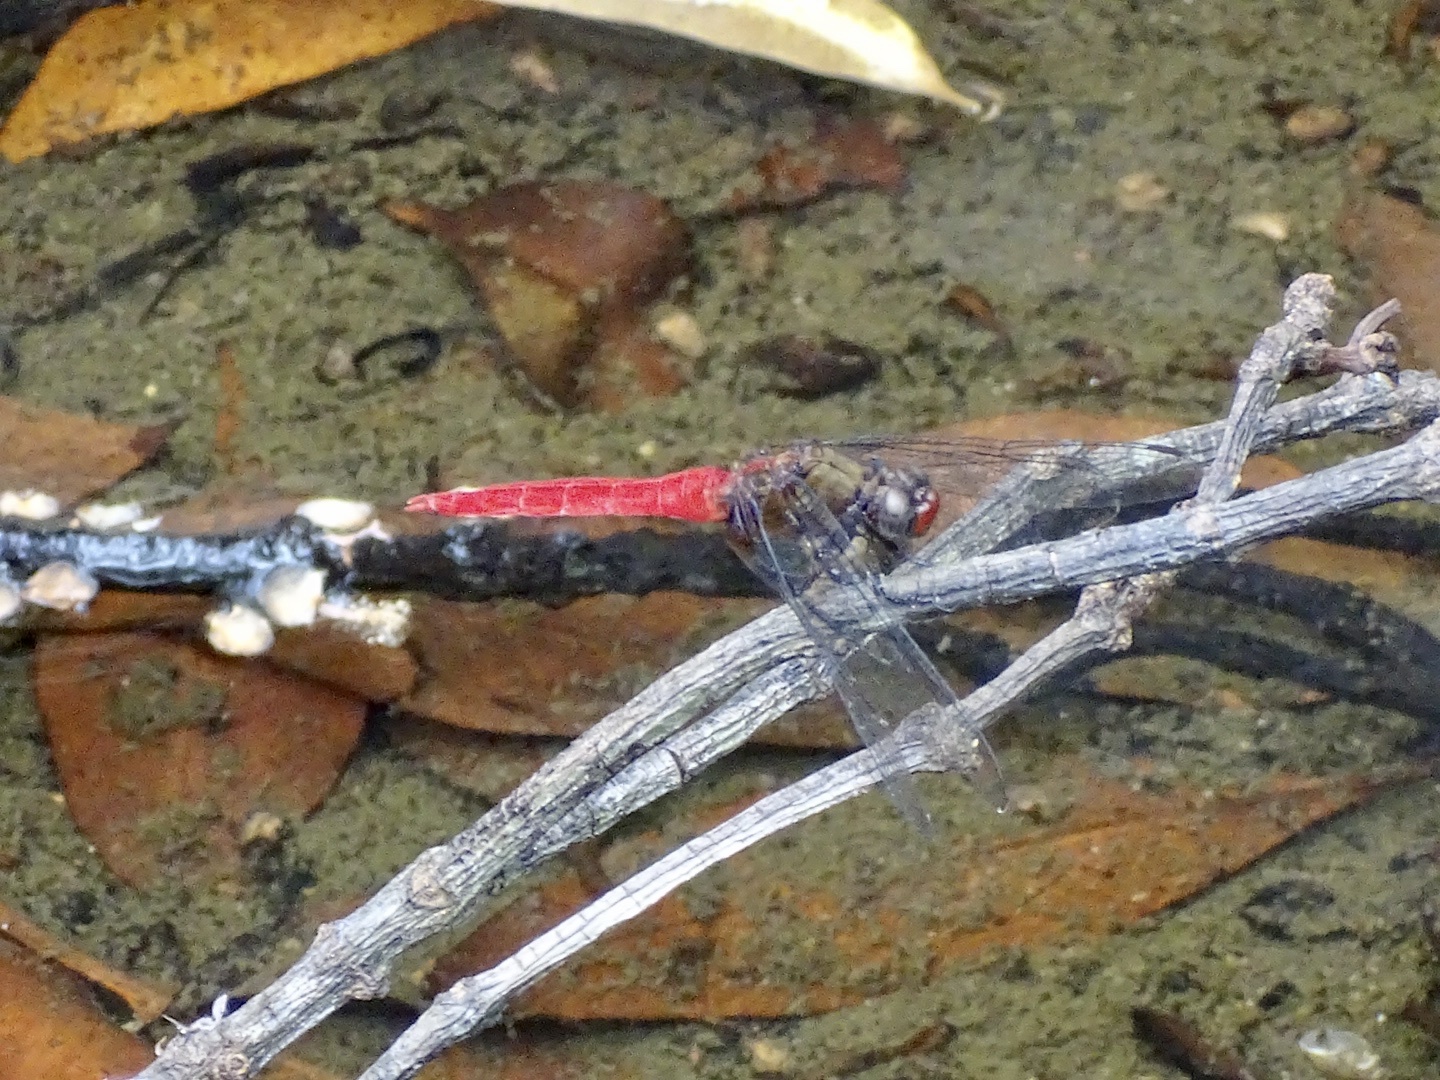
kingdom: Animalia
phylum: Arthropoda
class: Insecta
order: Odonata
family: Libellulidae
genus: Orthetrum
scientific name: Orthetrum chrysis
